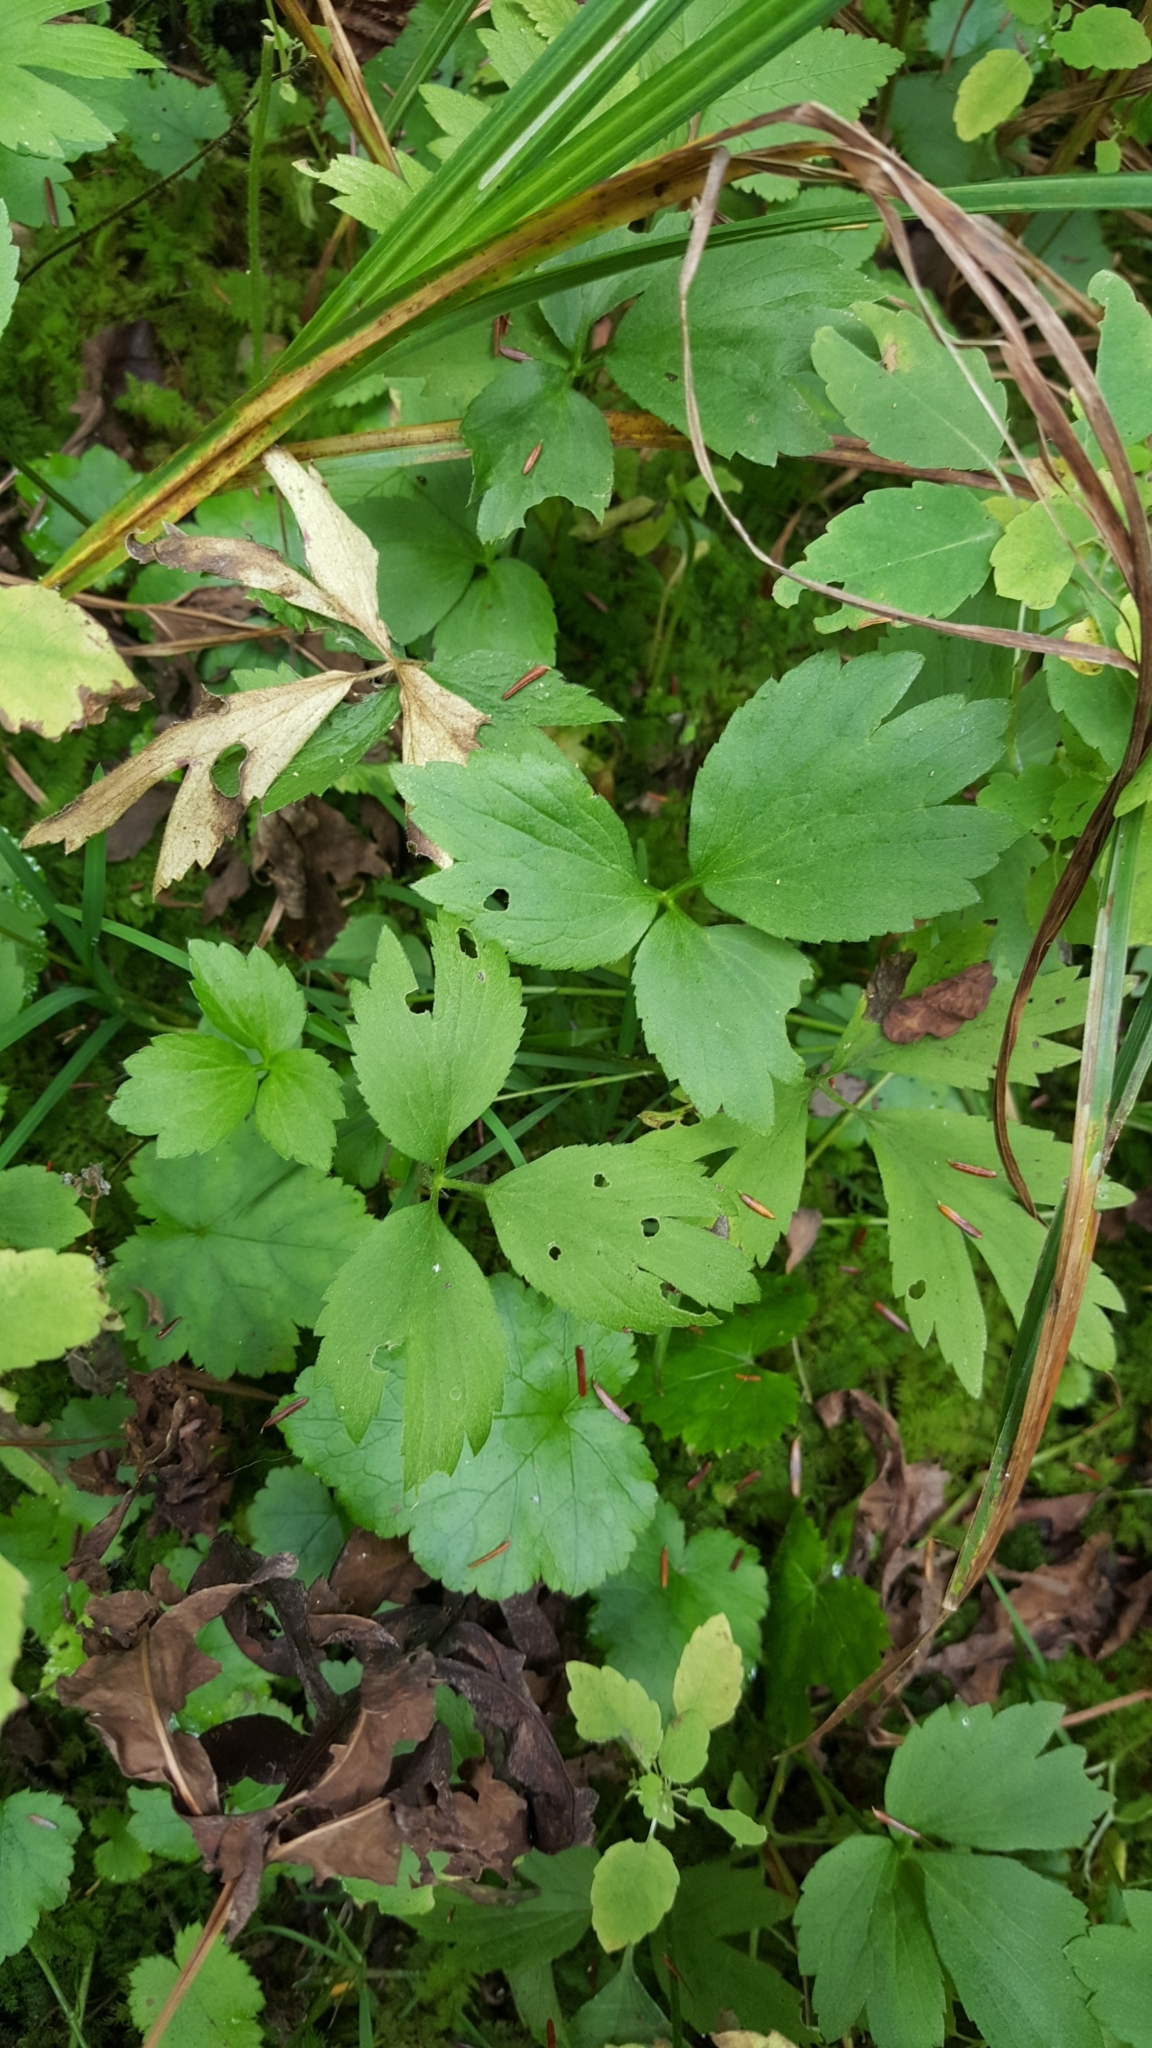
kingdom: Plantae
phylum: Tracheophyta
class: Magnoliopsida
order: Ranunculales
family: Ranunculaceae
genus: Ranunculus
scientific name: Ranunculus hispidus
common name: Bristly buttercup
